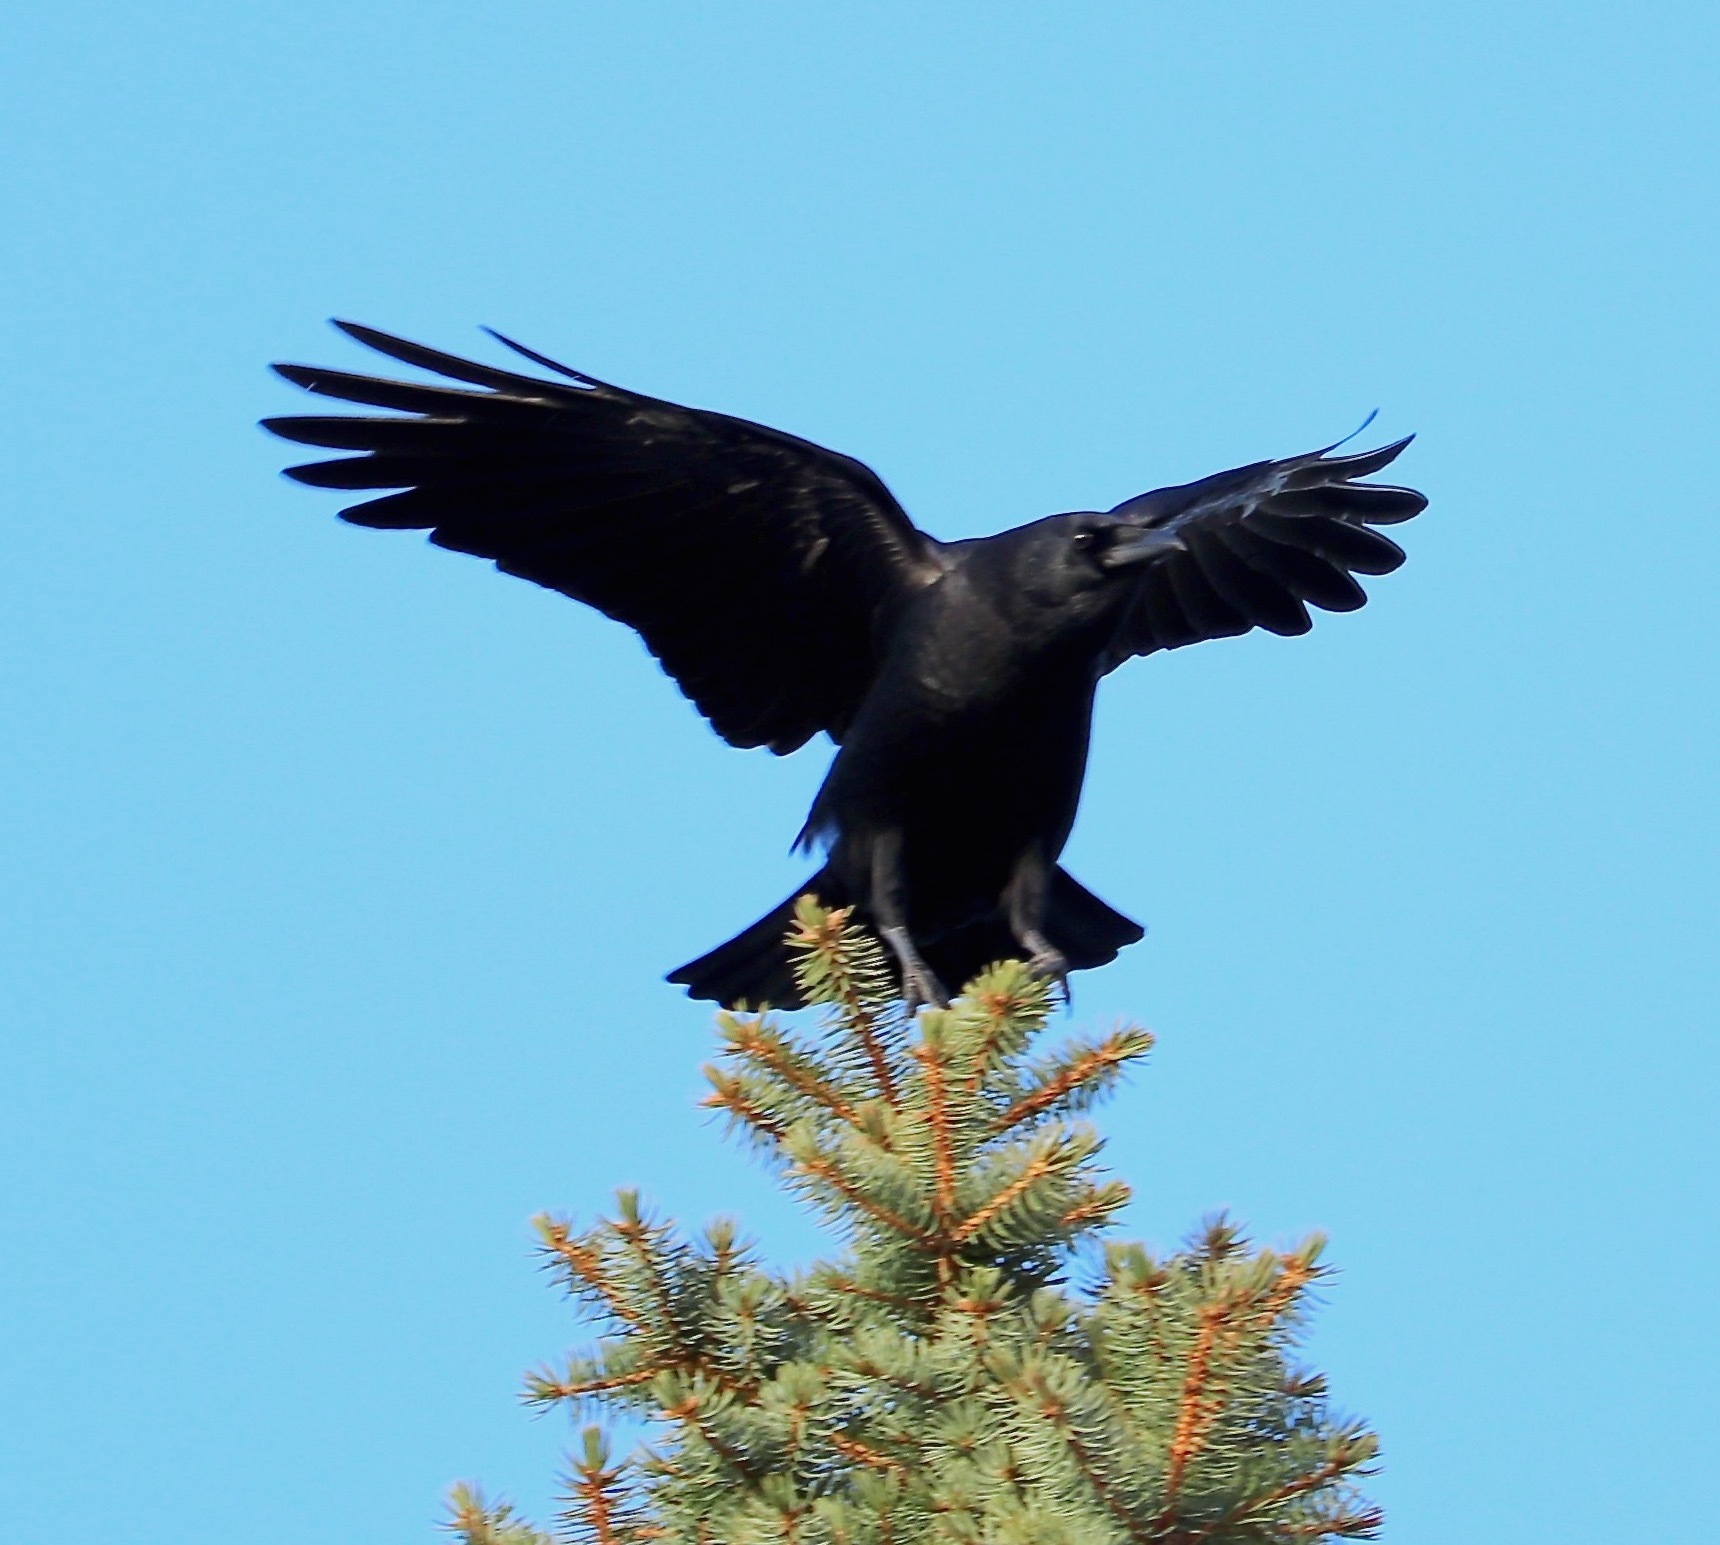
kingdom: Animalia
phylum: Chordata
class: Aves
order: Passeriformes
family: Corvidae
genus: Corvus
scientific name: Corvus brachyrhynchos
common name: American crow
